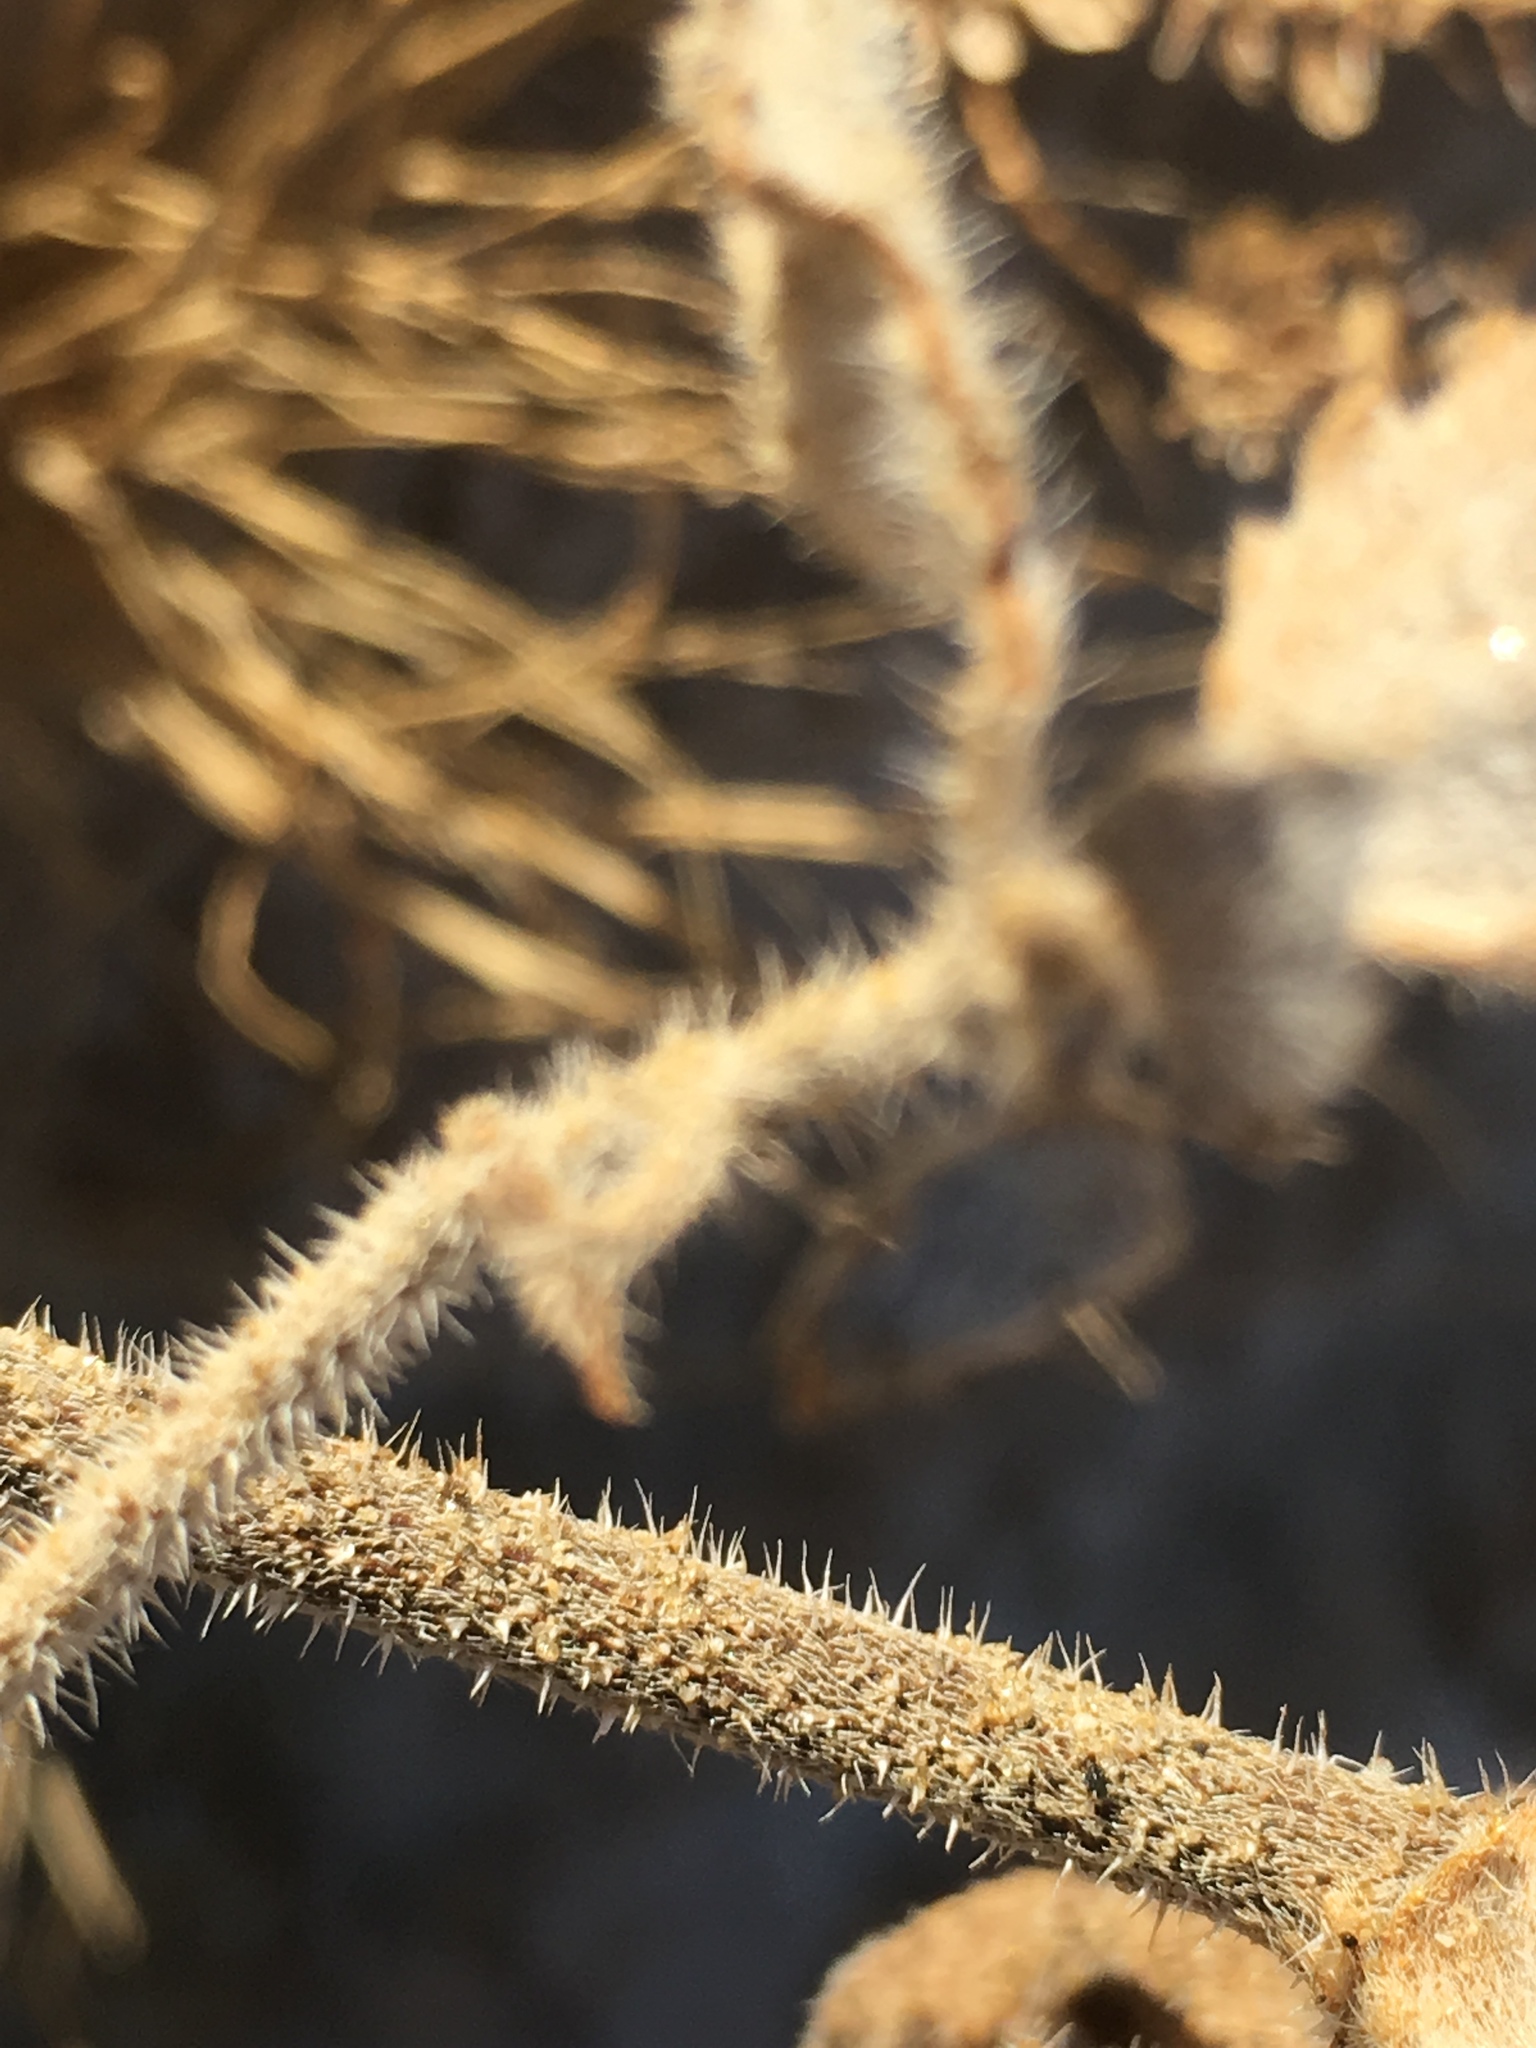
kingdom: Plantae
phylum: Tracheophyta
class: Magnoliopsida
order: Asterales
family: Asteraceae
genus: Dicoria
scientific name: Dicoria canescens
